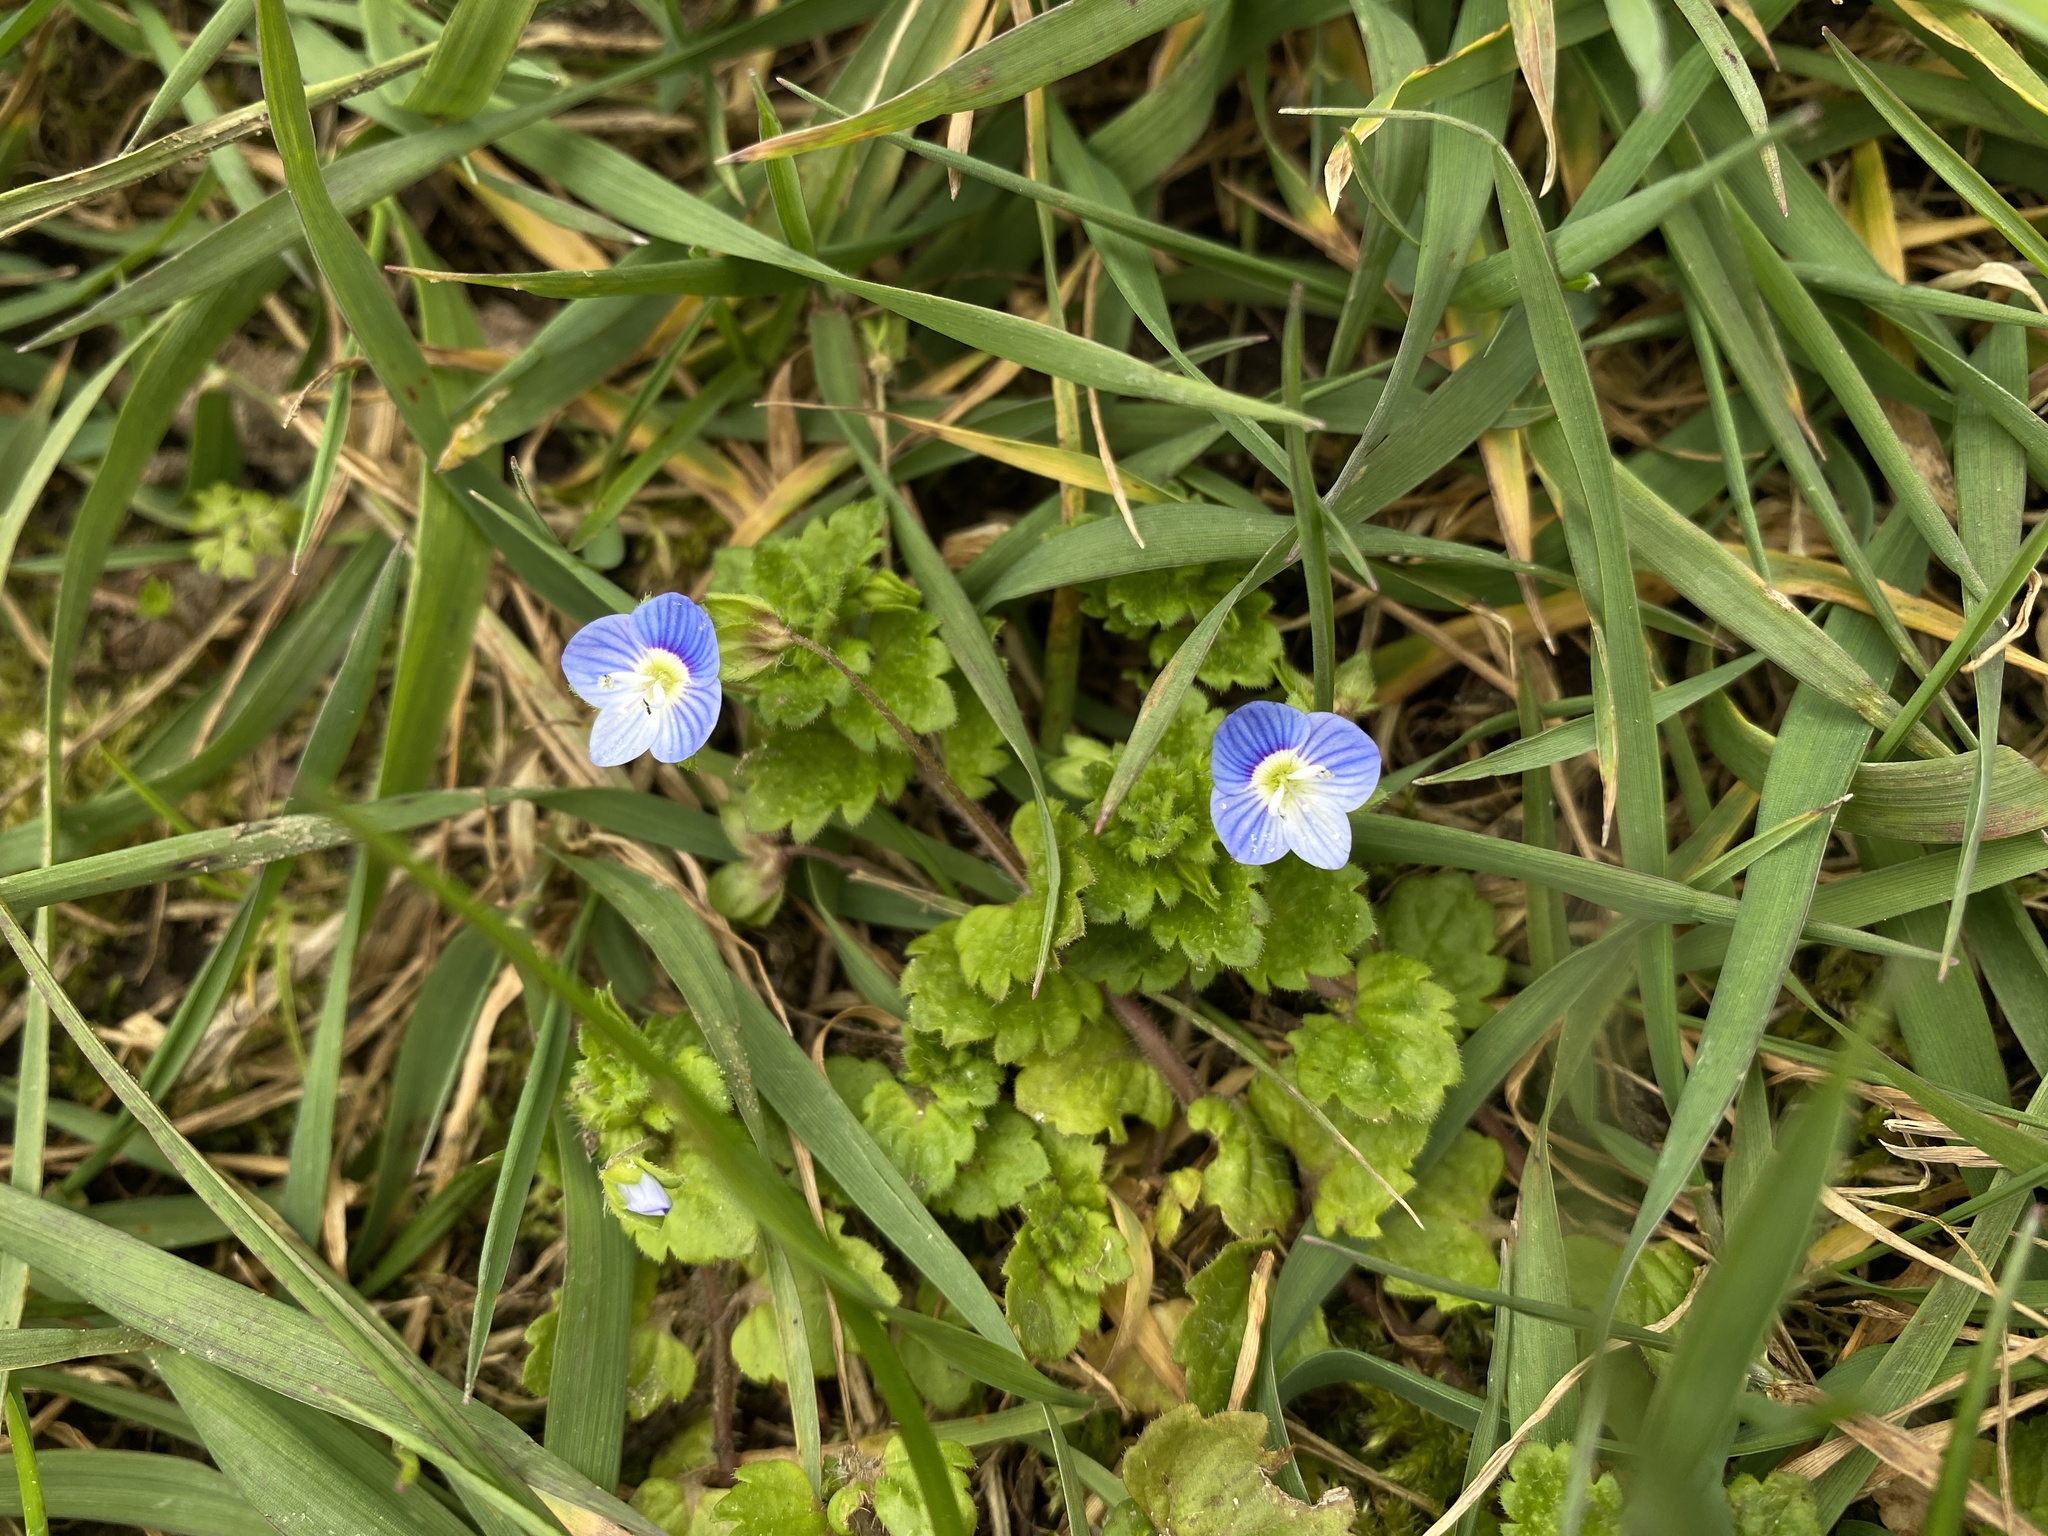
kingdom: Plantae
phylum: Tracheophyta
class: Magnoliopsida
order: Lamiales
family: Plantaginaceae
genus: Veronica
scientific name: Veronica persica
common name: Common field-speedwell
